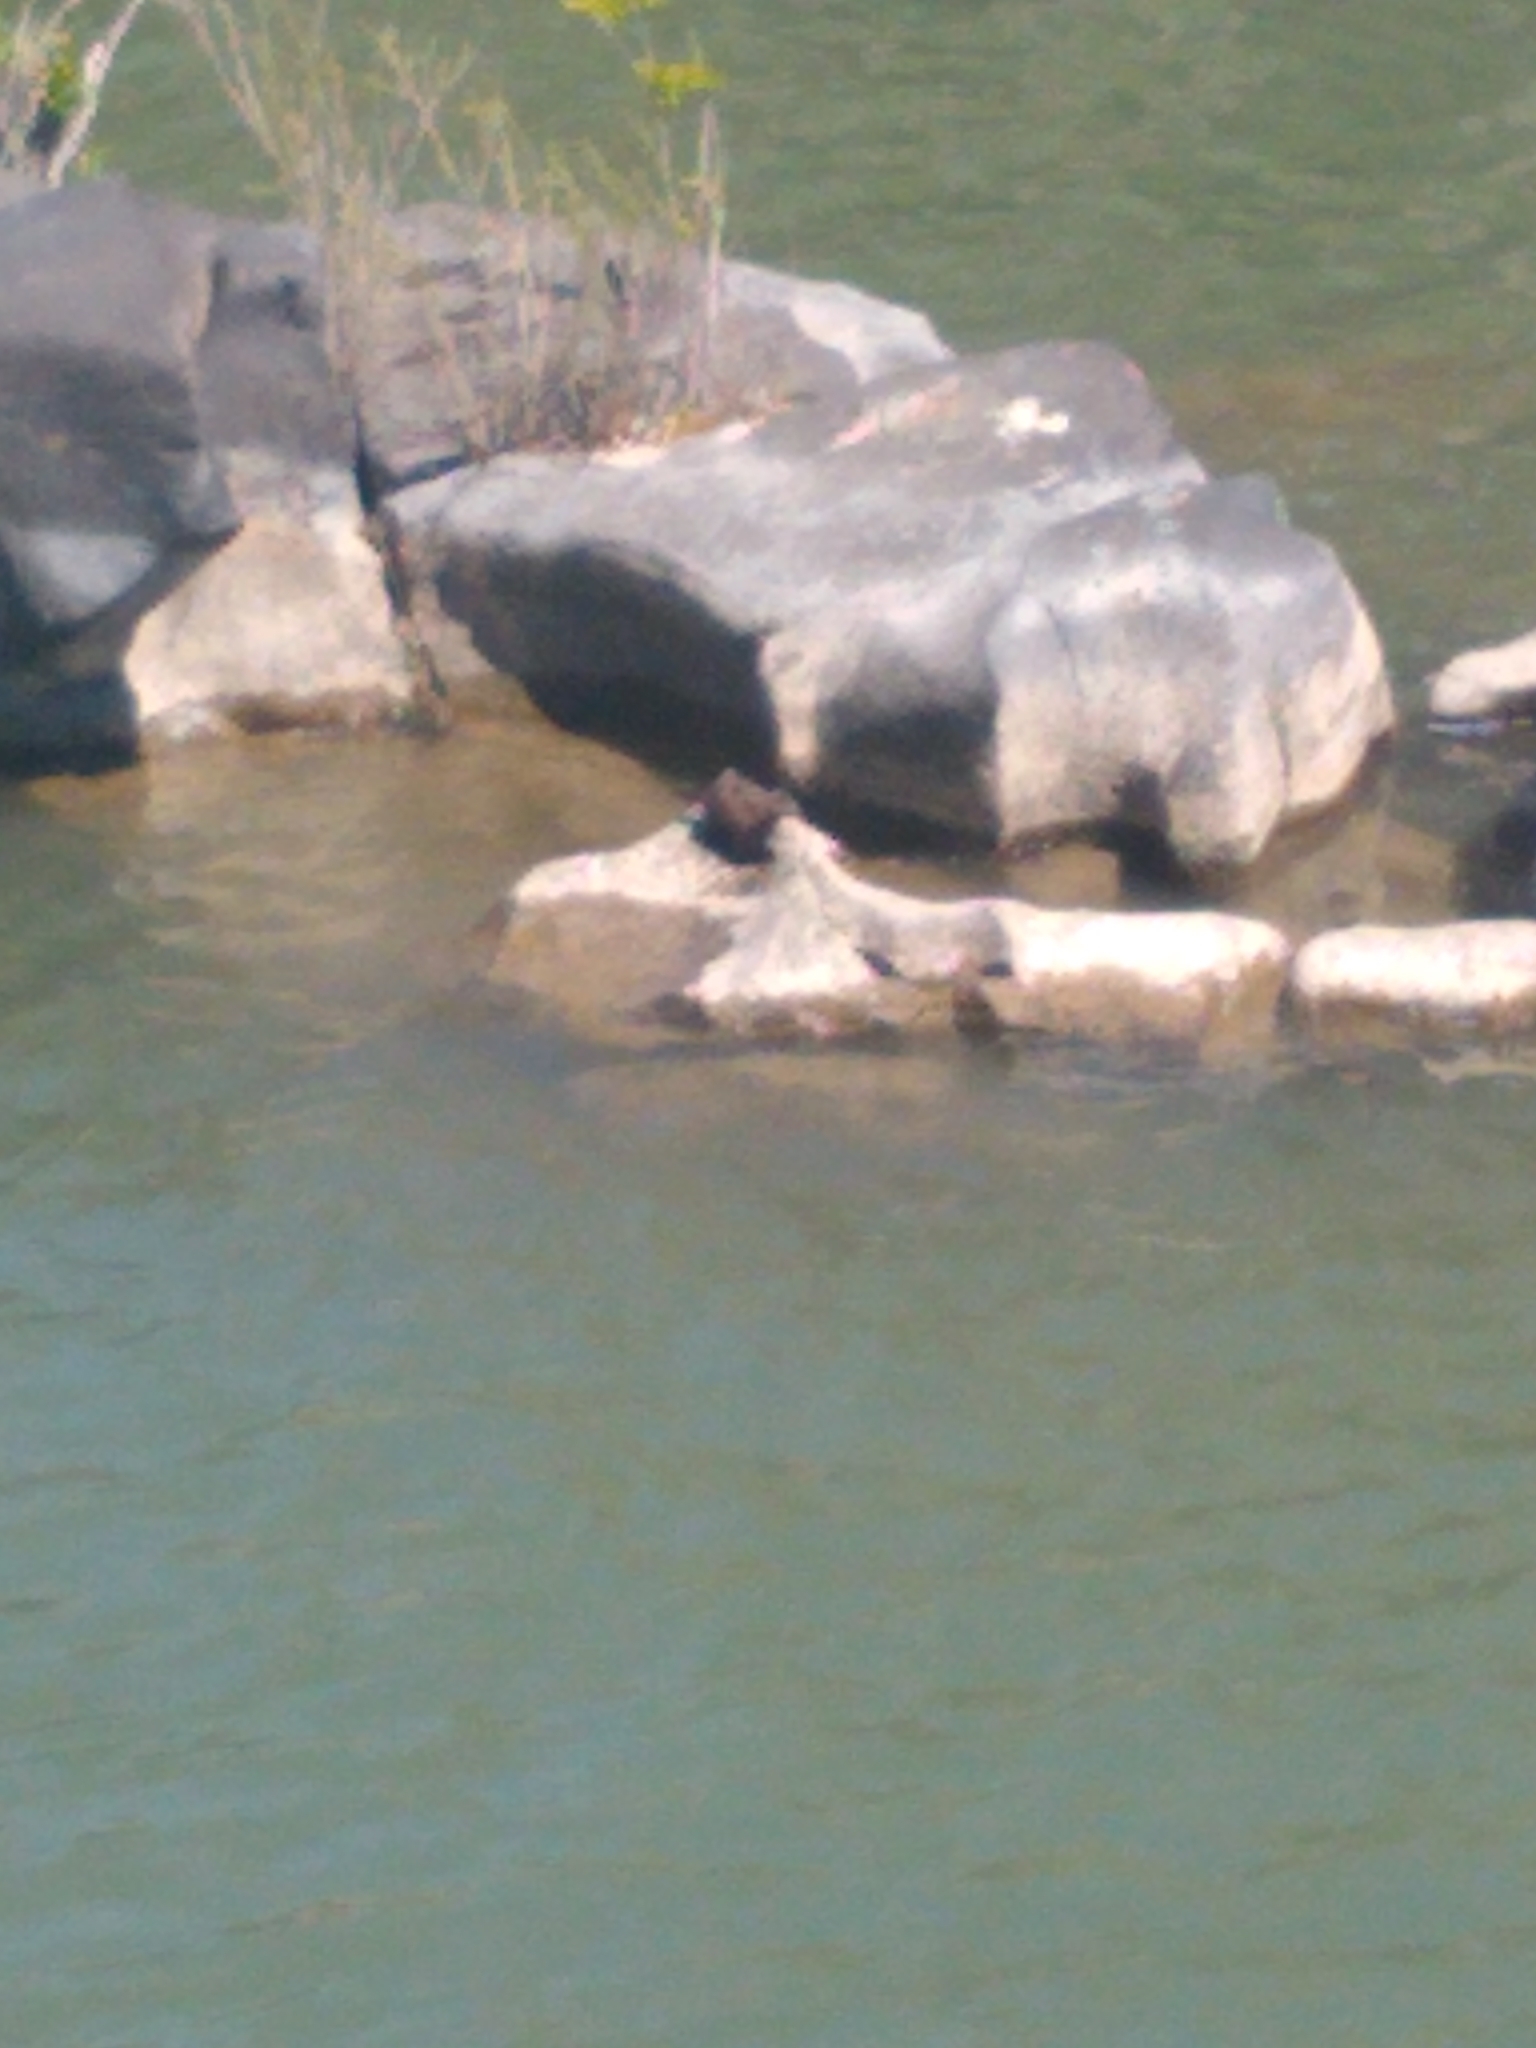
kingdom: Animalia
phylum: Chordata
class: Mammalia
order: Carnivora
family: Mustelidae
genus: Mustela
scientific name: Mustela
